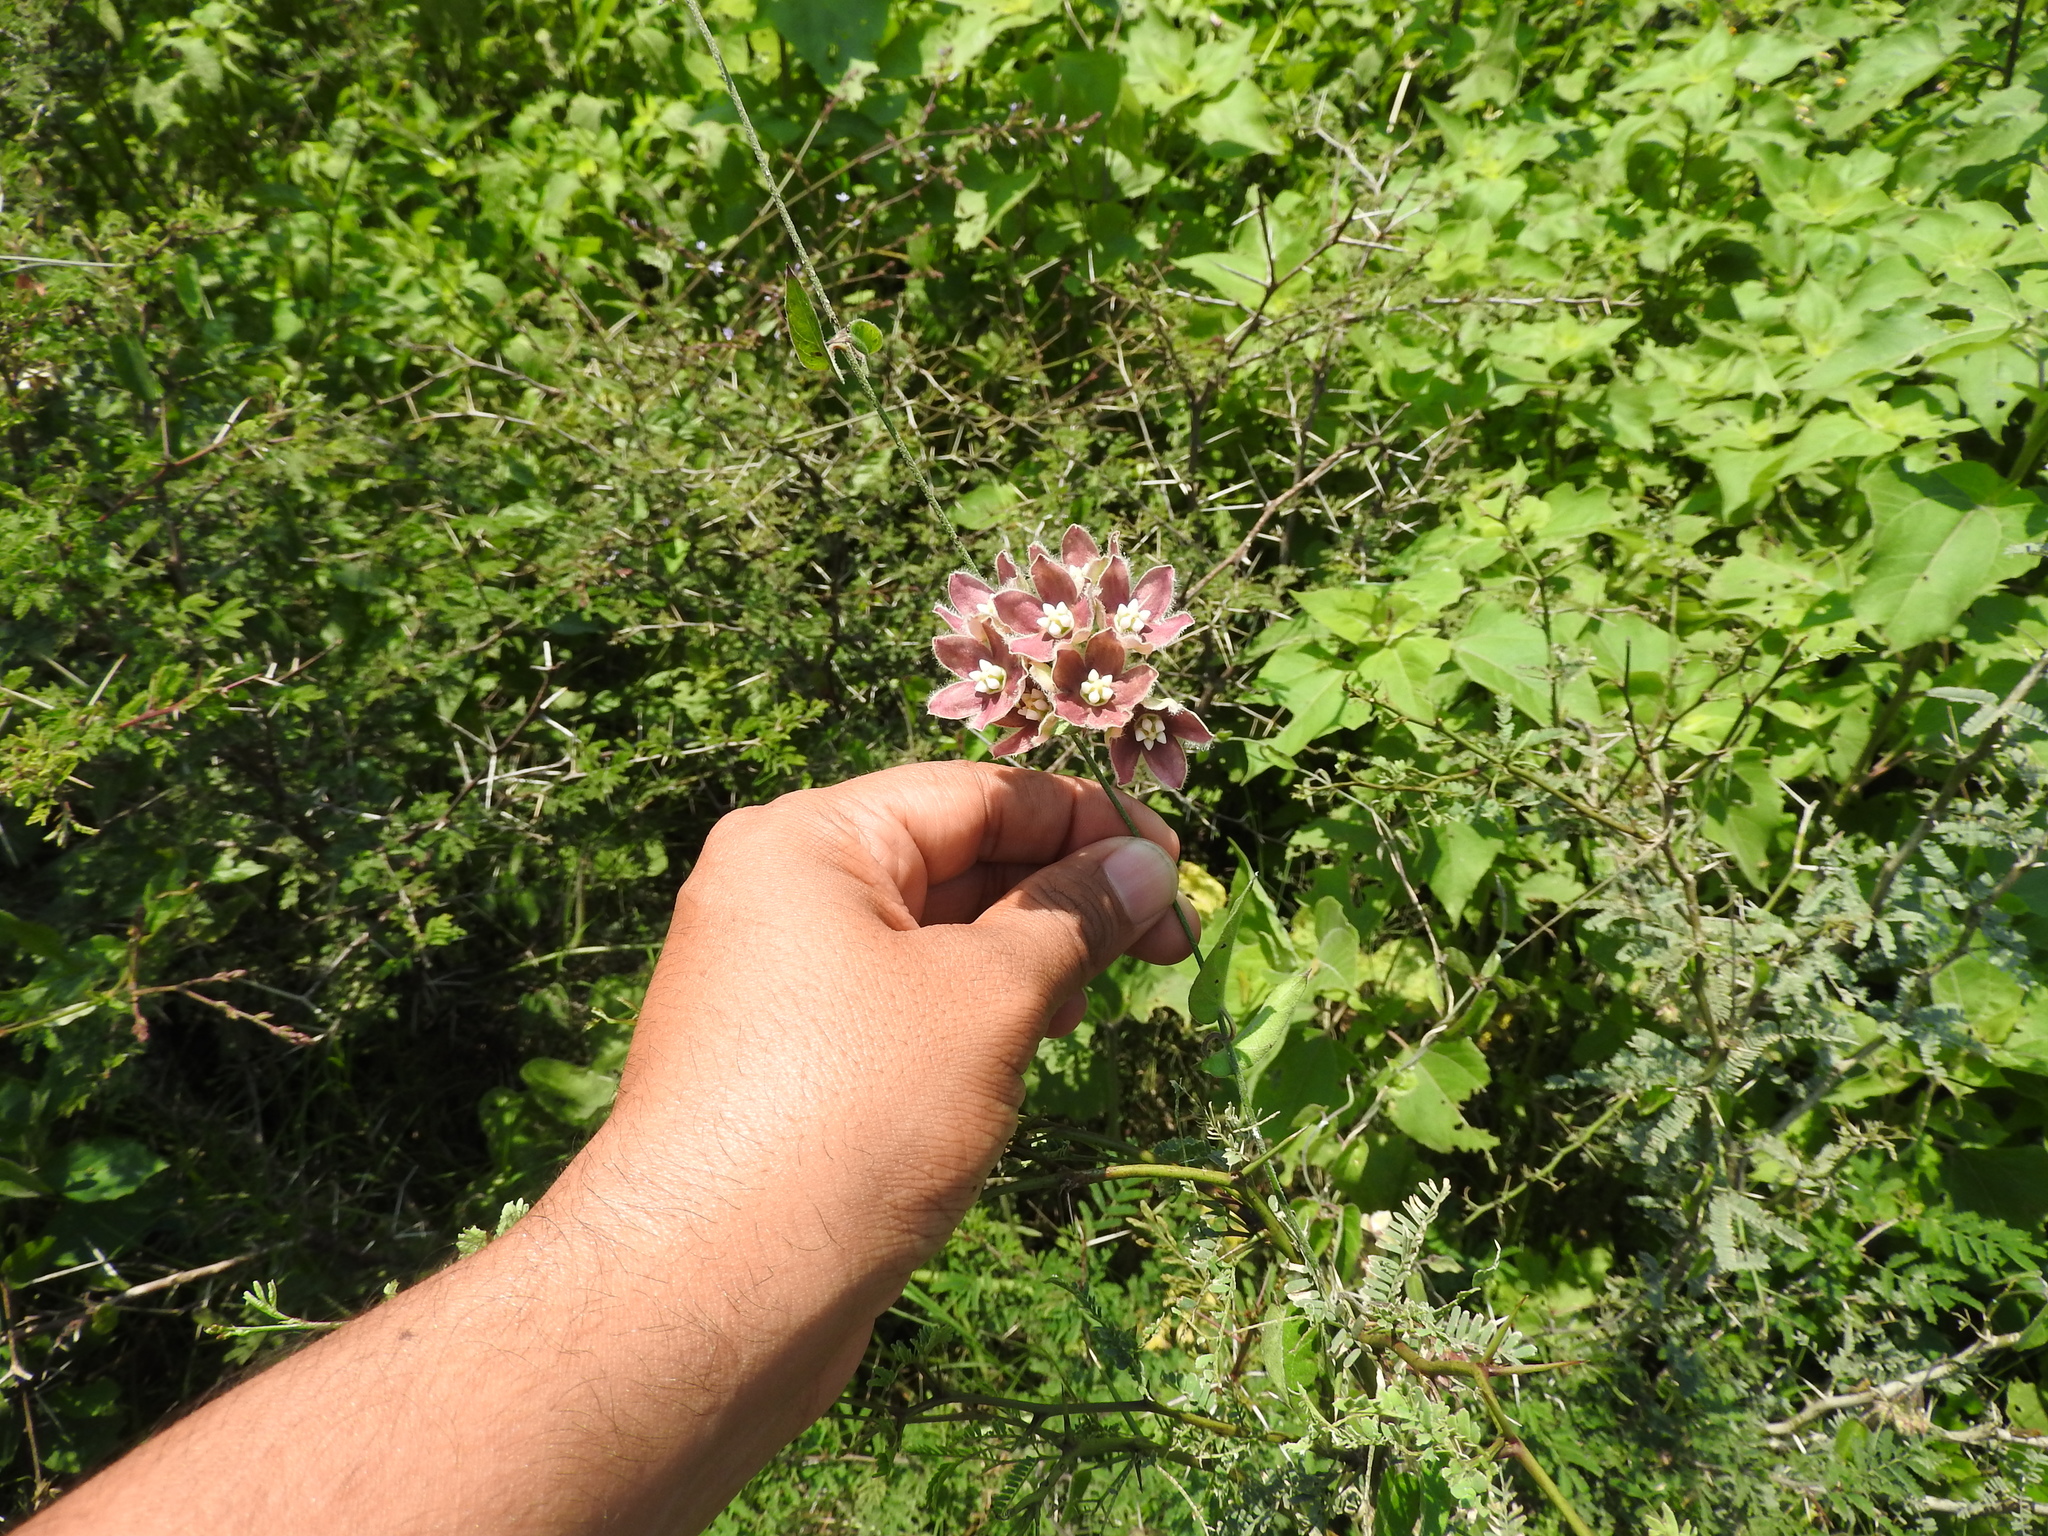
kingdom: Plantae
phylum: Tracheophyta
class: Magnoliopsida
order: Gentianales
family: Apocynaceae
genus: Funastrum
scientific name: Funastrum elegans
